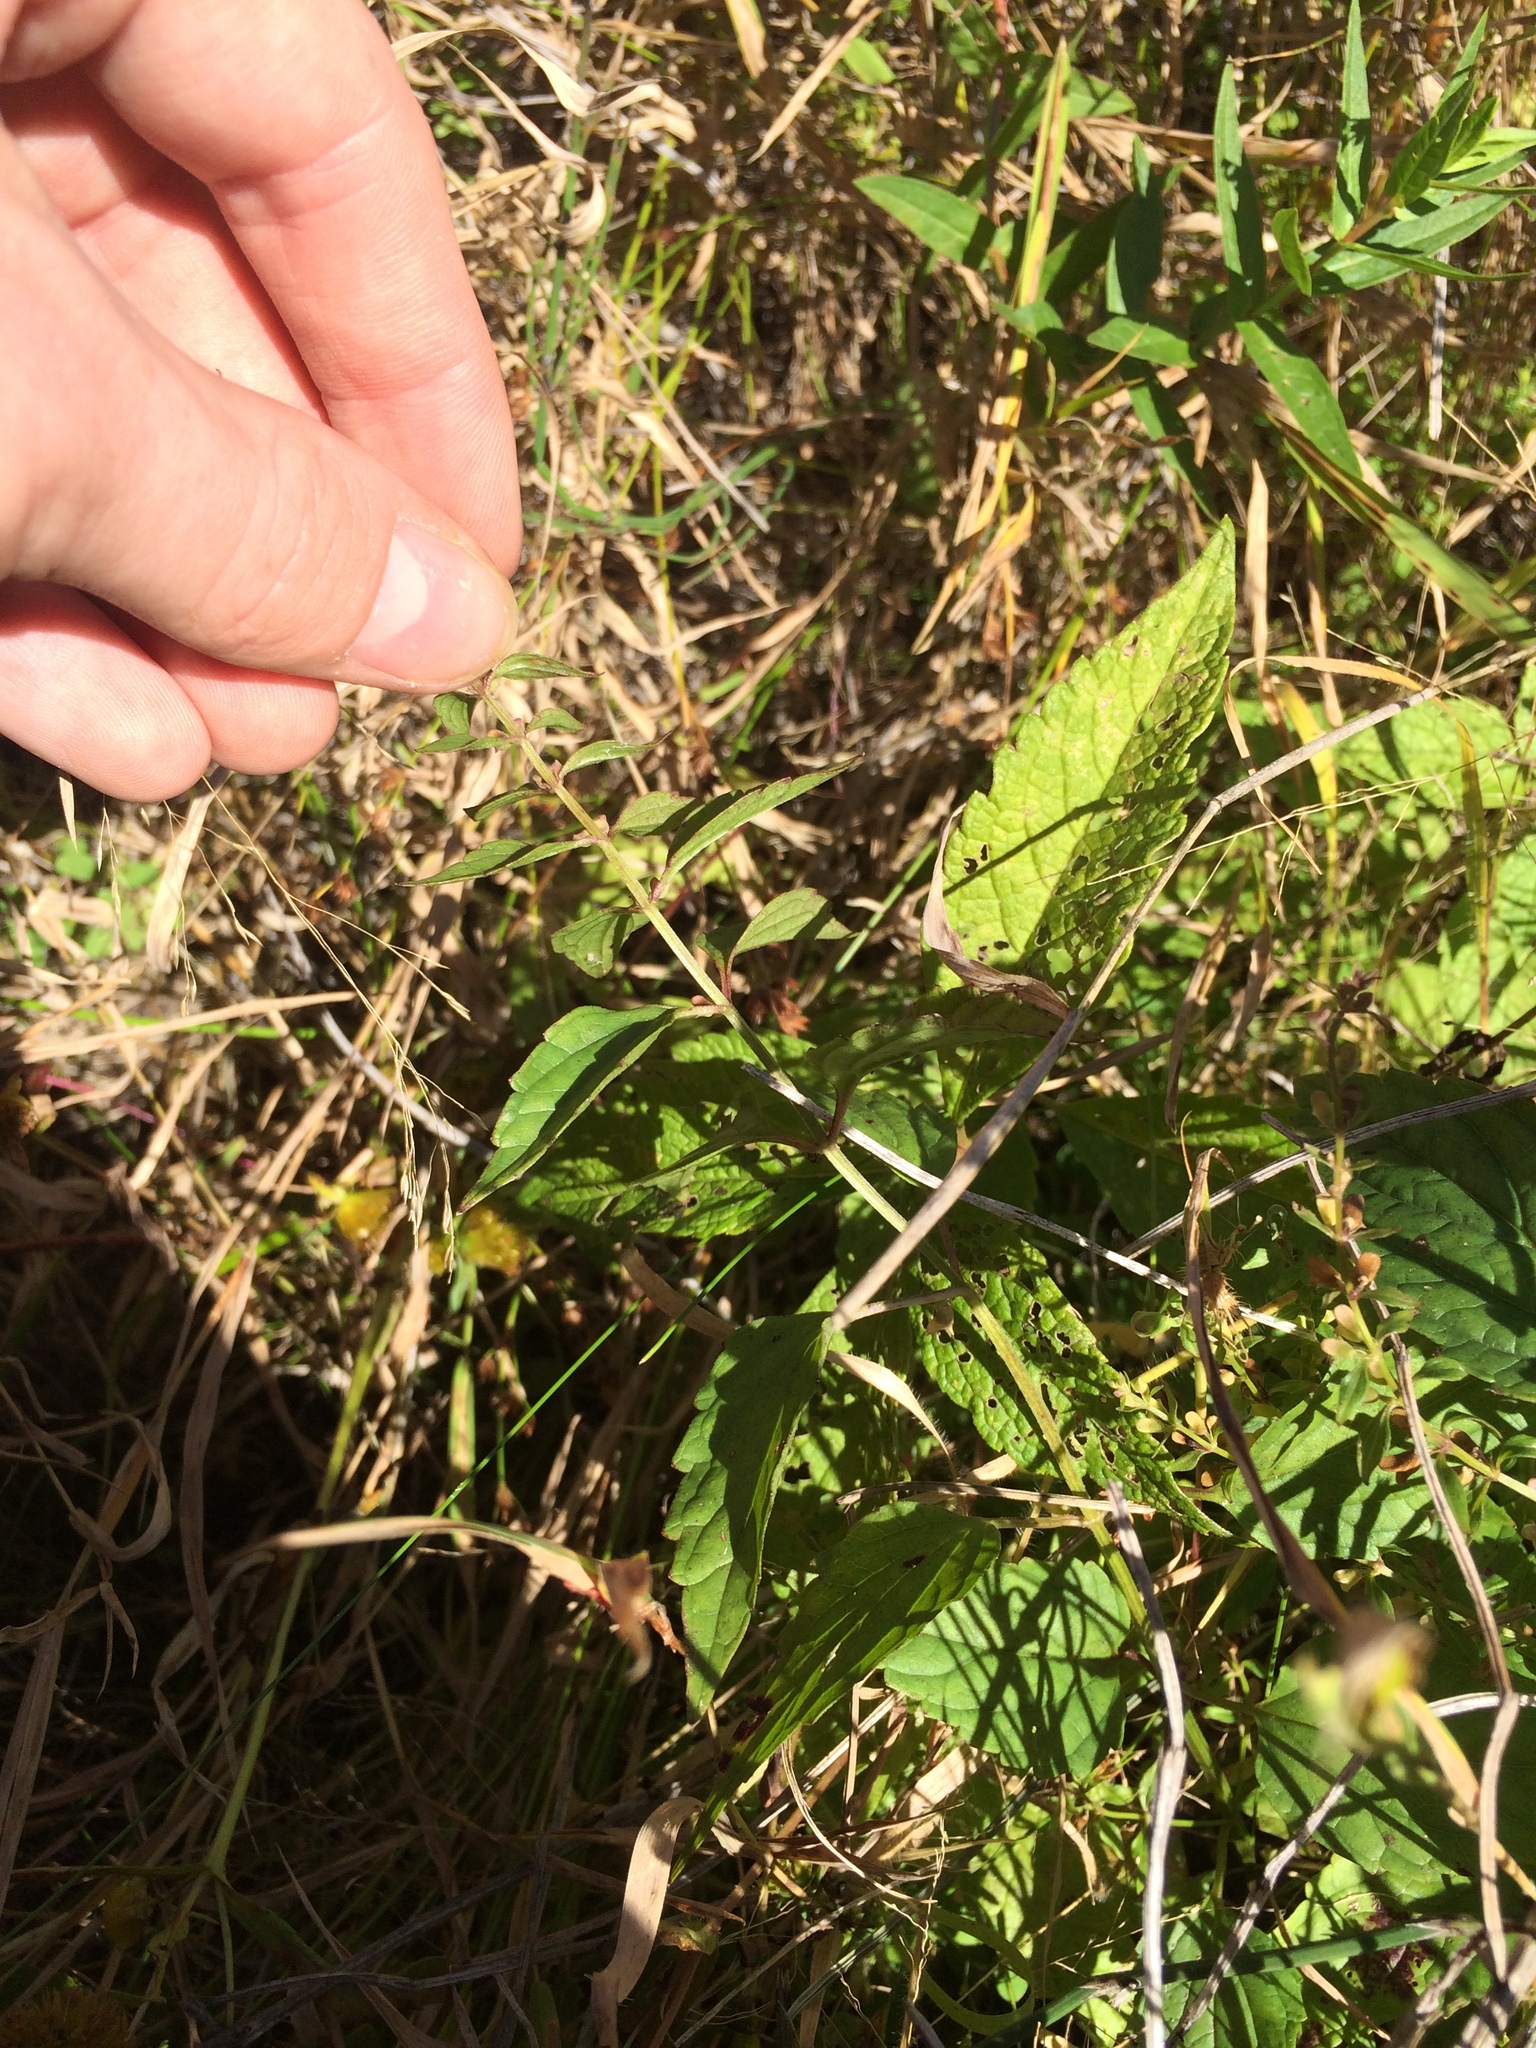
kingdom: Plantae
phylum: Tracheophyta
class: Magnoliopsida
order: Lamiales
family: Lamiaceae
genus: Scutellaria
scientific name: Scutellaria lateriflora
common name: Blue skullcap
